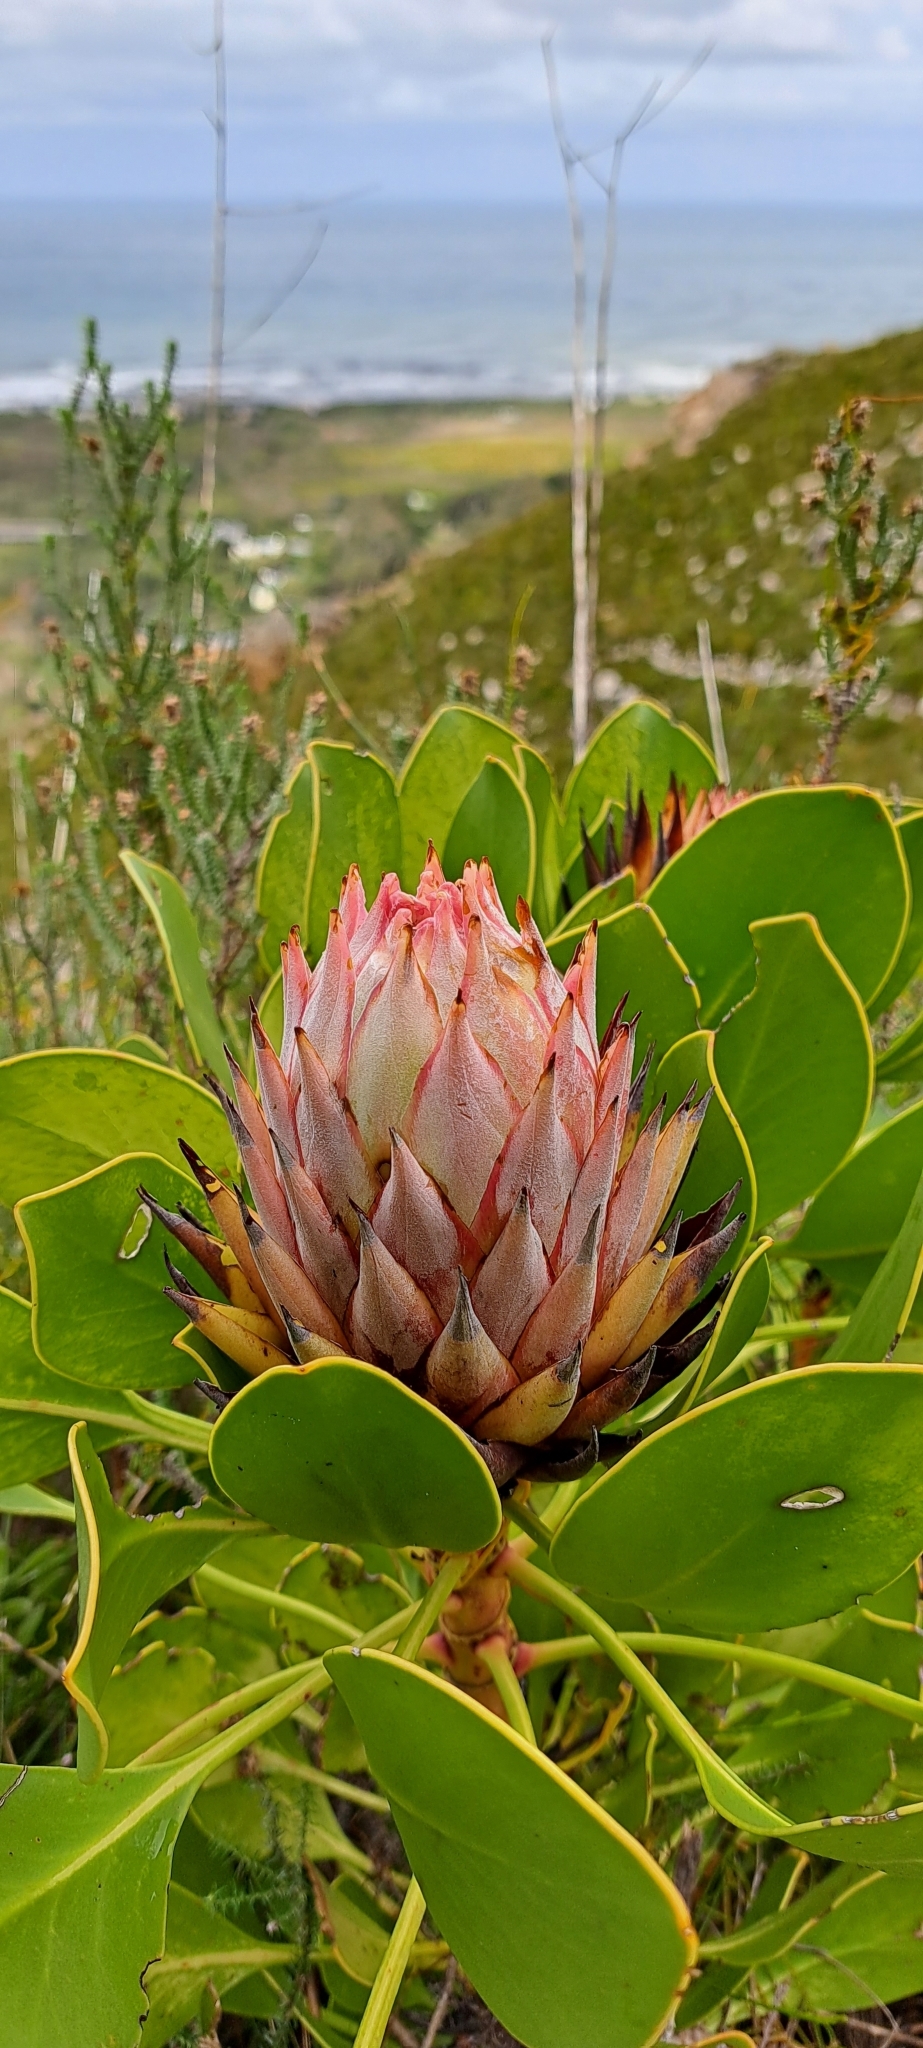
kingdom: Plantae
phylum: Tracheophyta
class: Magnoliopsida
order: Proteales
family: Proteaceae
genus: Protea
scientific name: Protea cynaroides
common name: King protea
